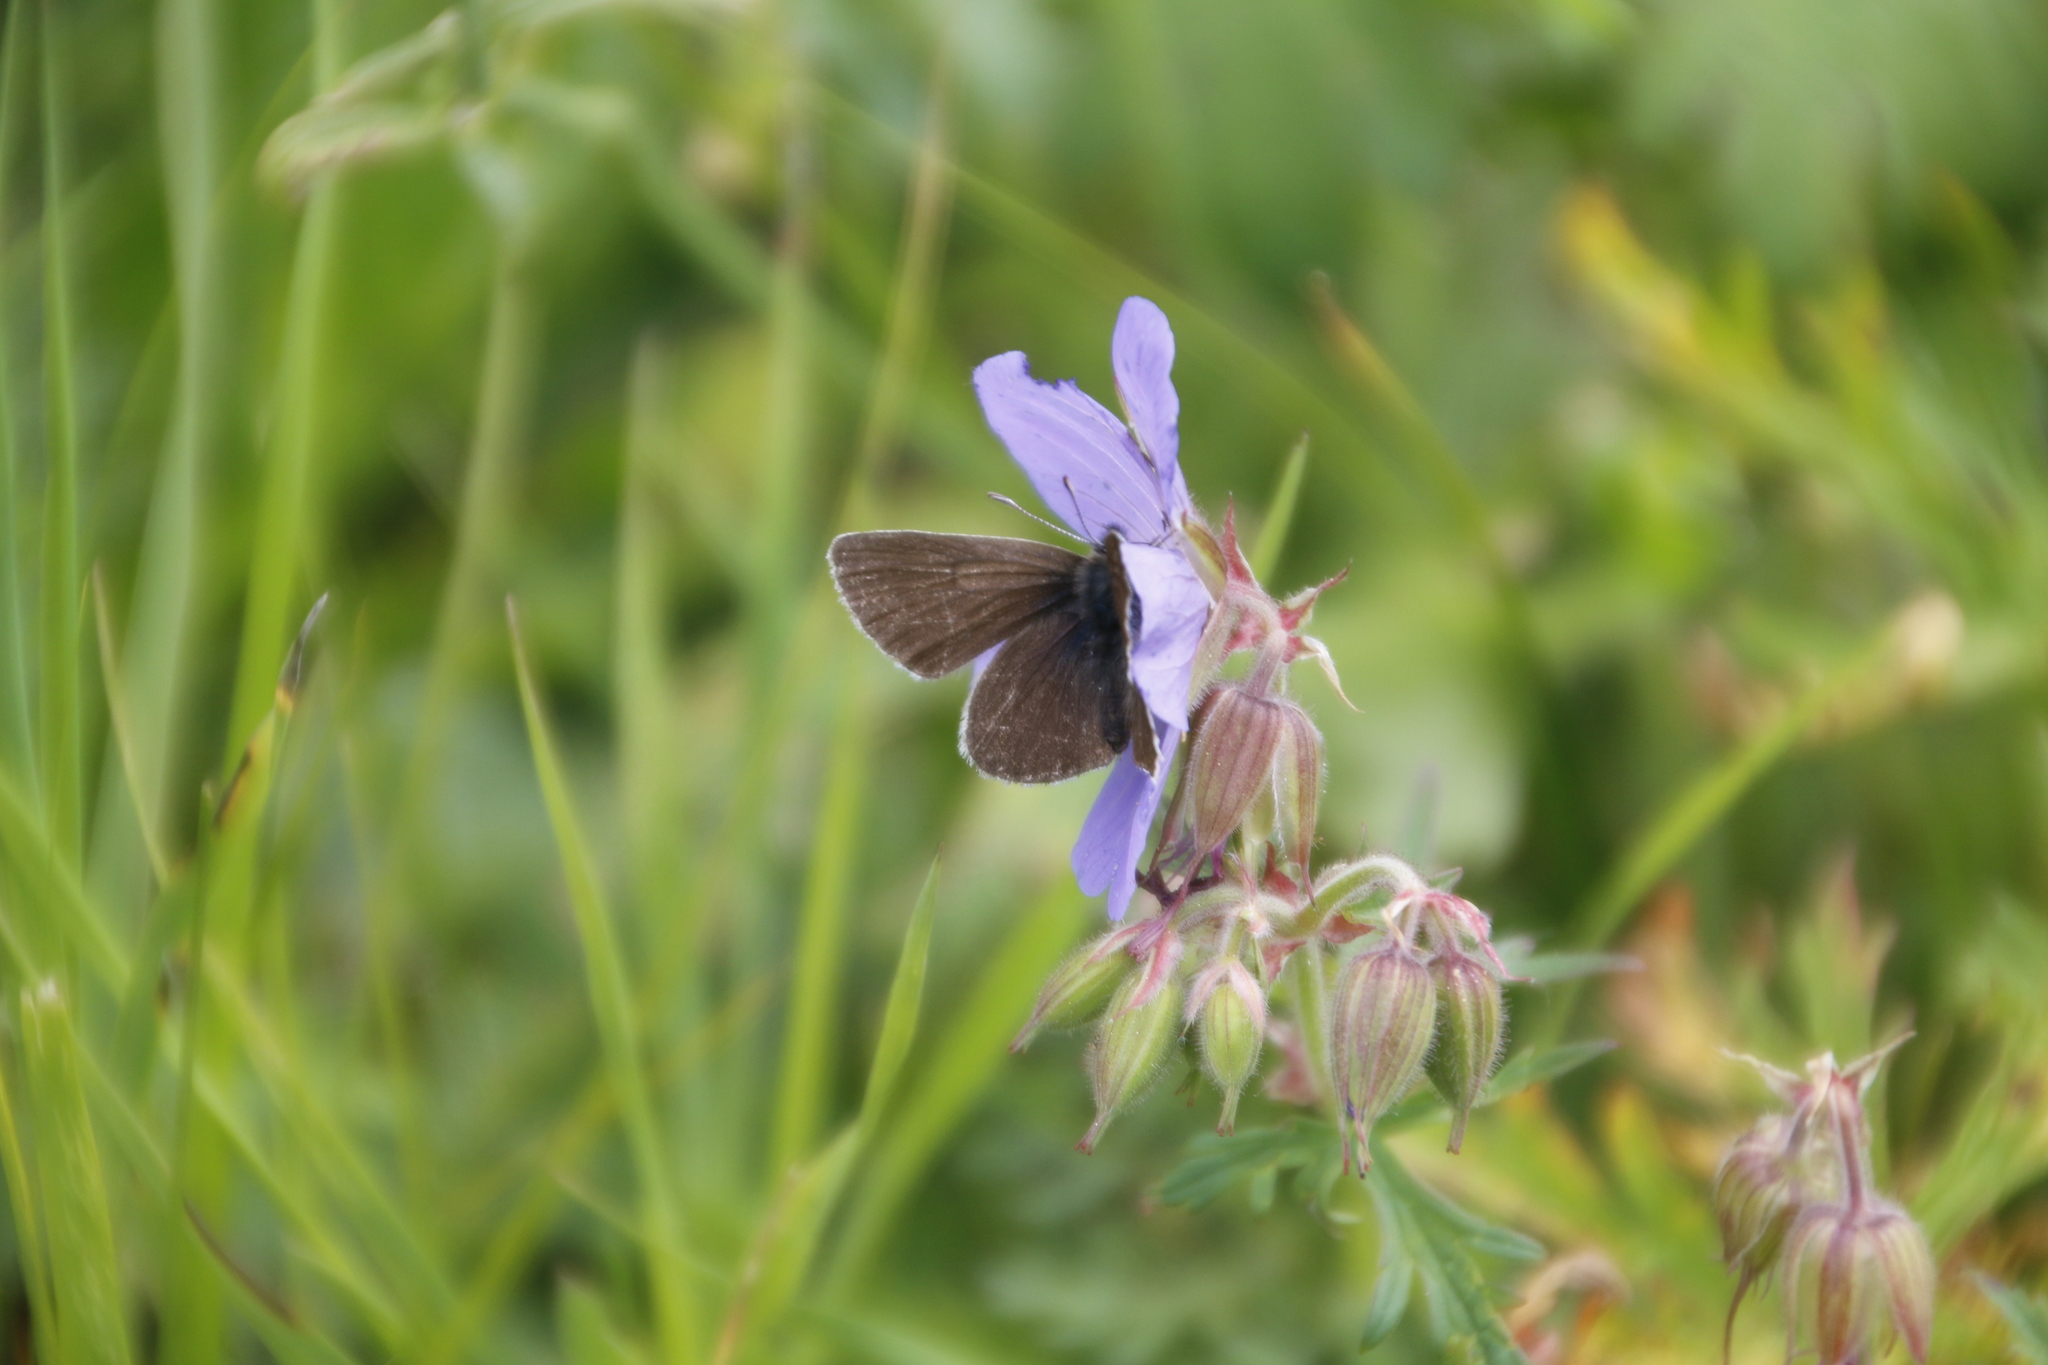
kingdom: Animalia
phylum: Arthropoda
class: Insecta
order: Lepidoptera
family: Lycaenidae
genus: Eumedonia
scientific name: Eumedonia eumedon
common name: Geranium argus
